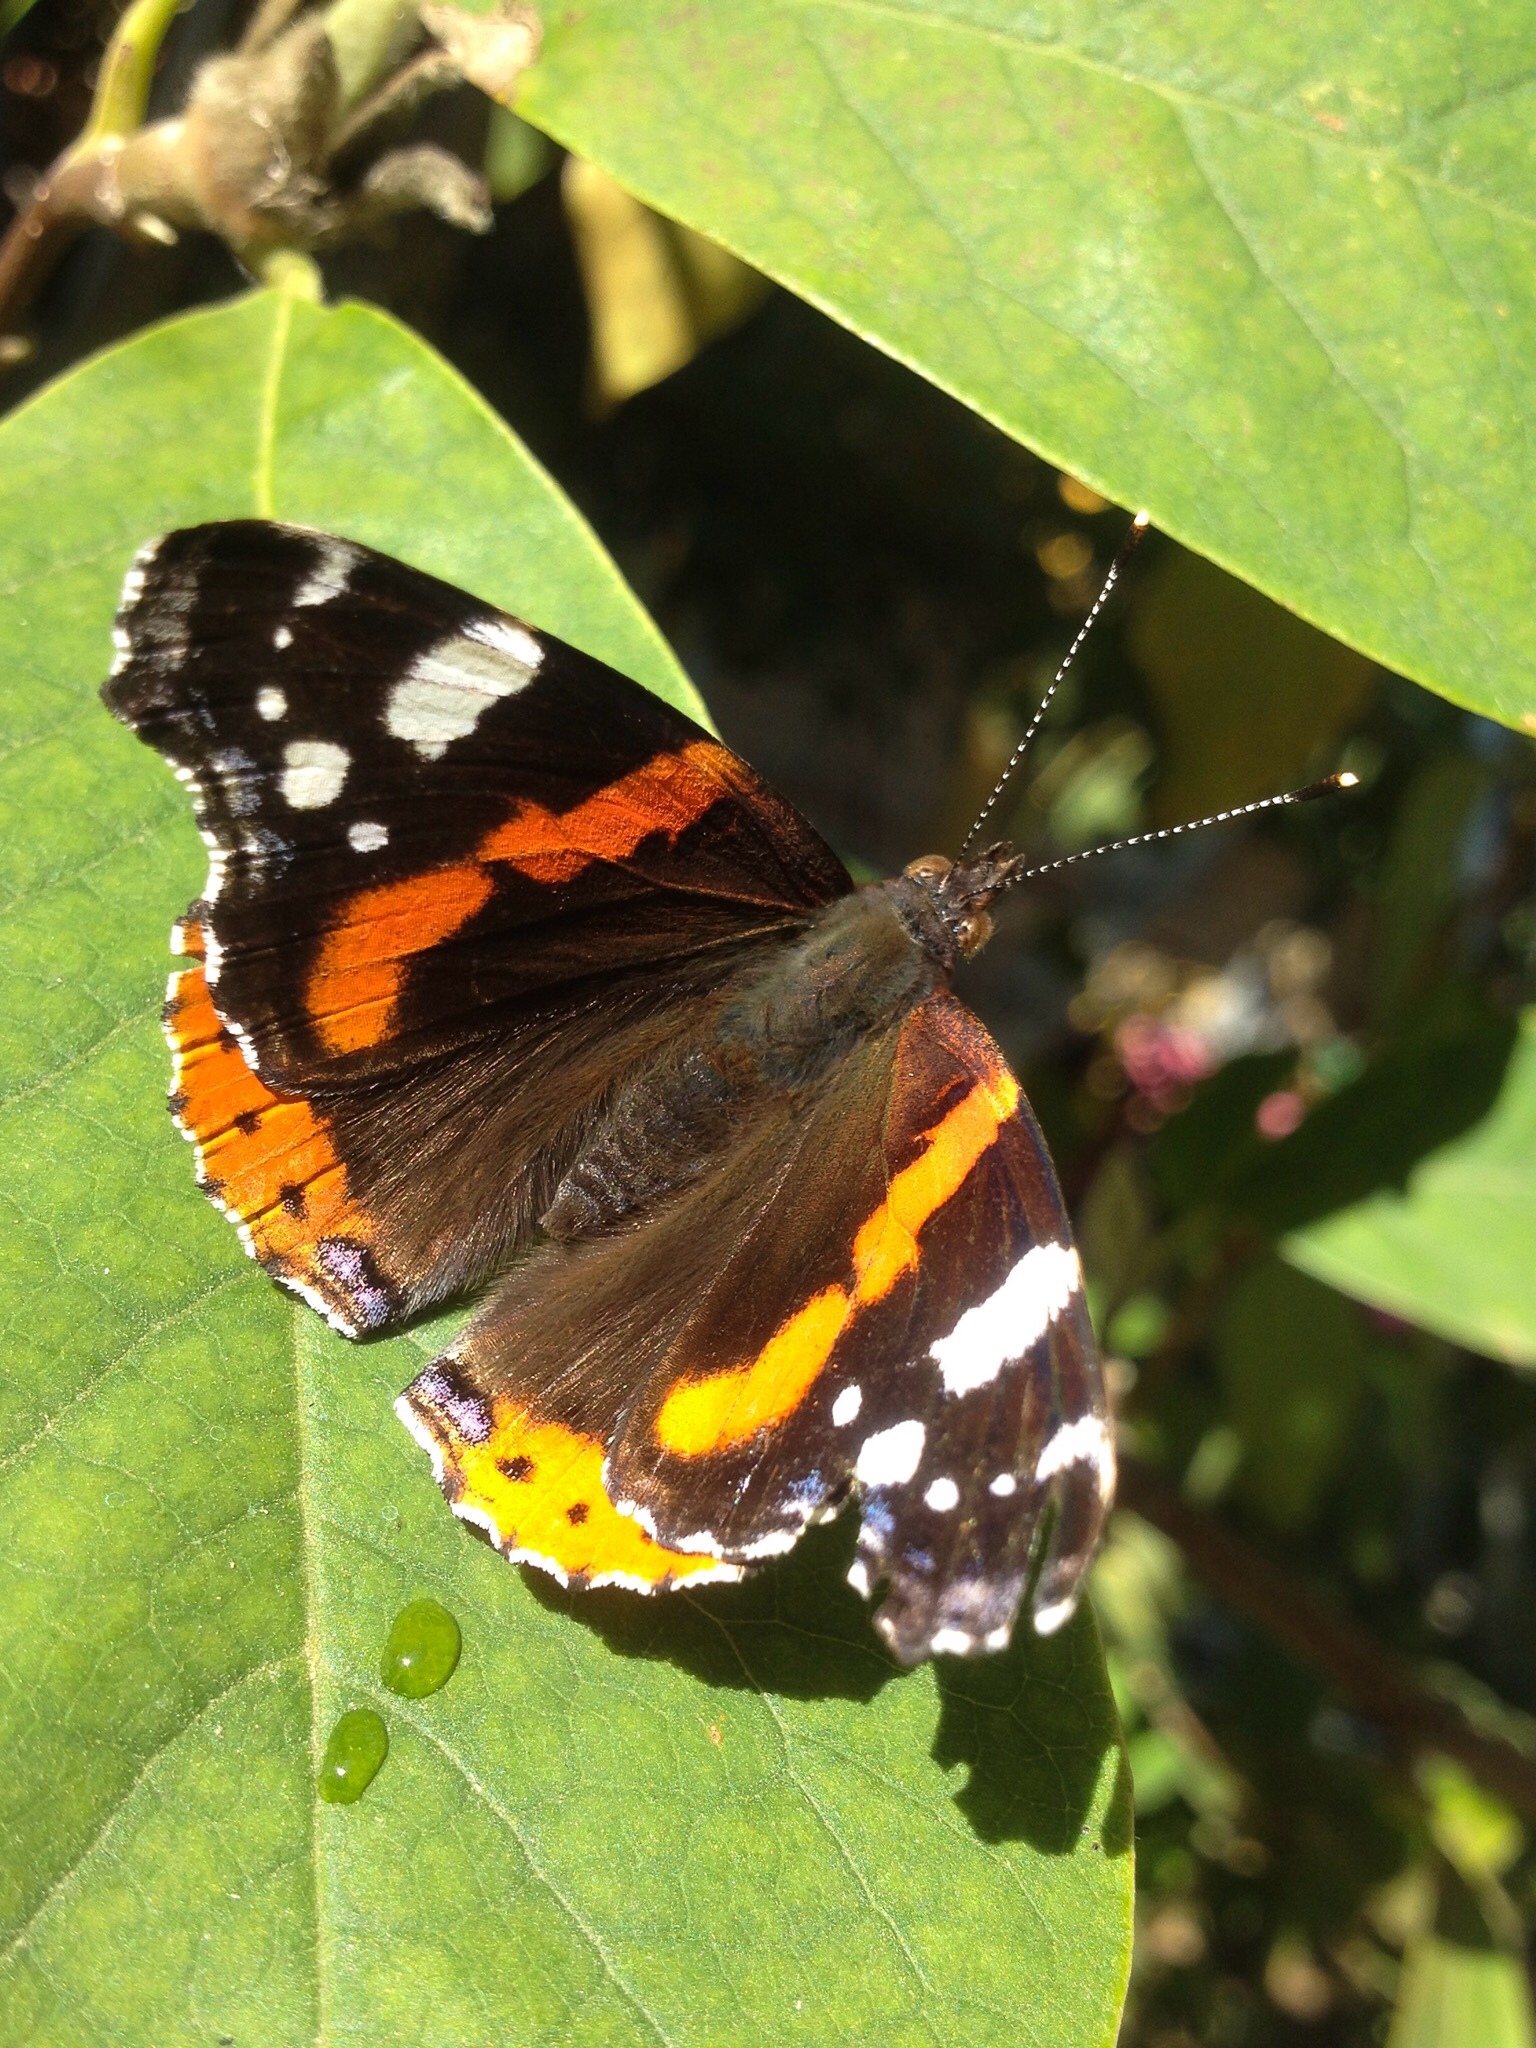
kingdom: Animalia
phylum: Arthropoda
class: Insecta
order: Lepidoptera
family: Nymphalidae
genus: Vanessa
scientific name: Vanessa atalanta
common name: Red admiral
